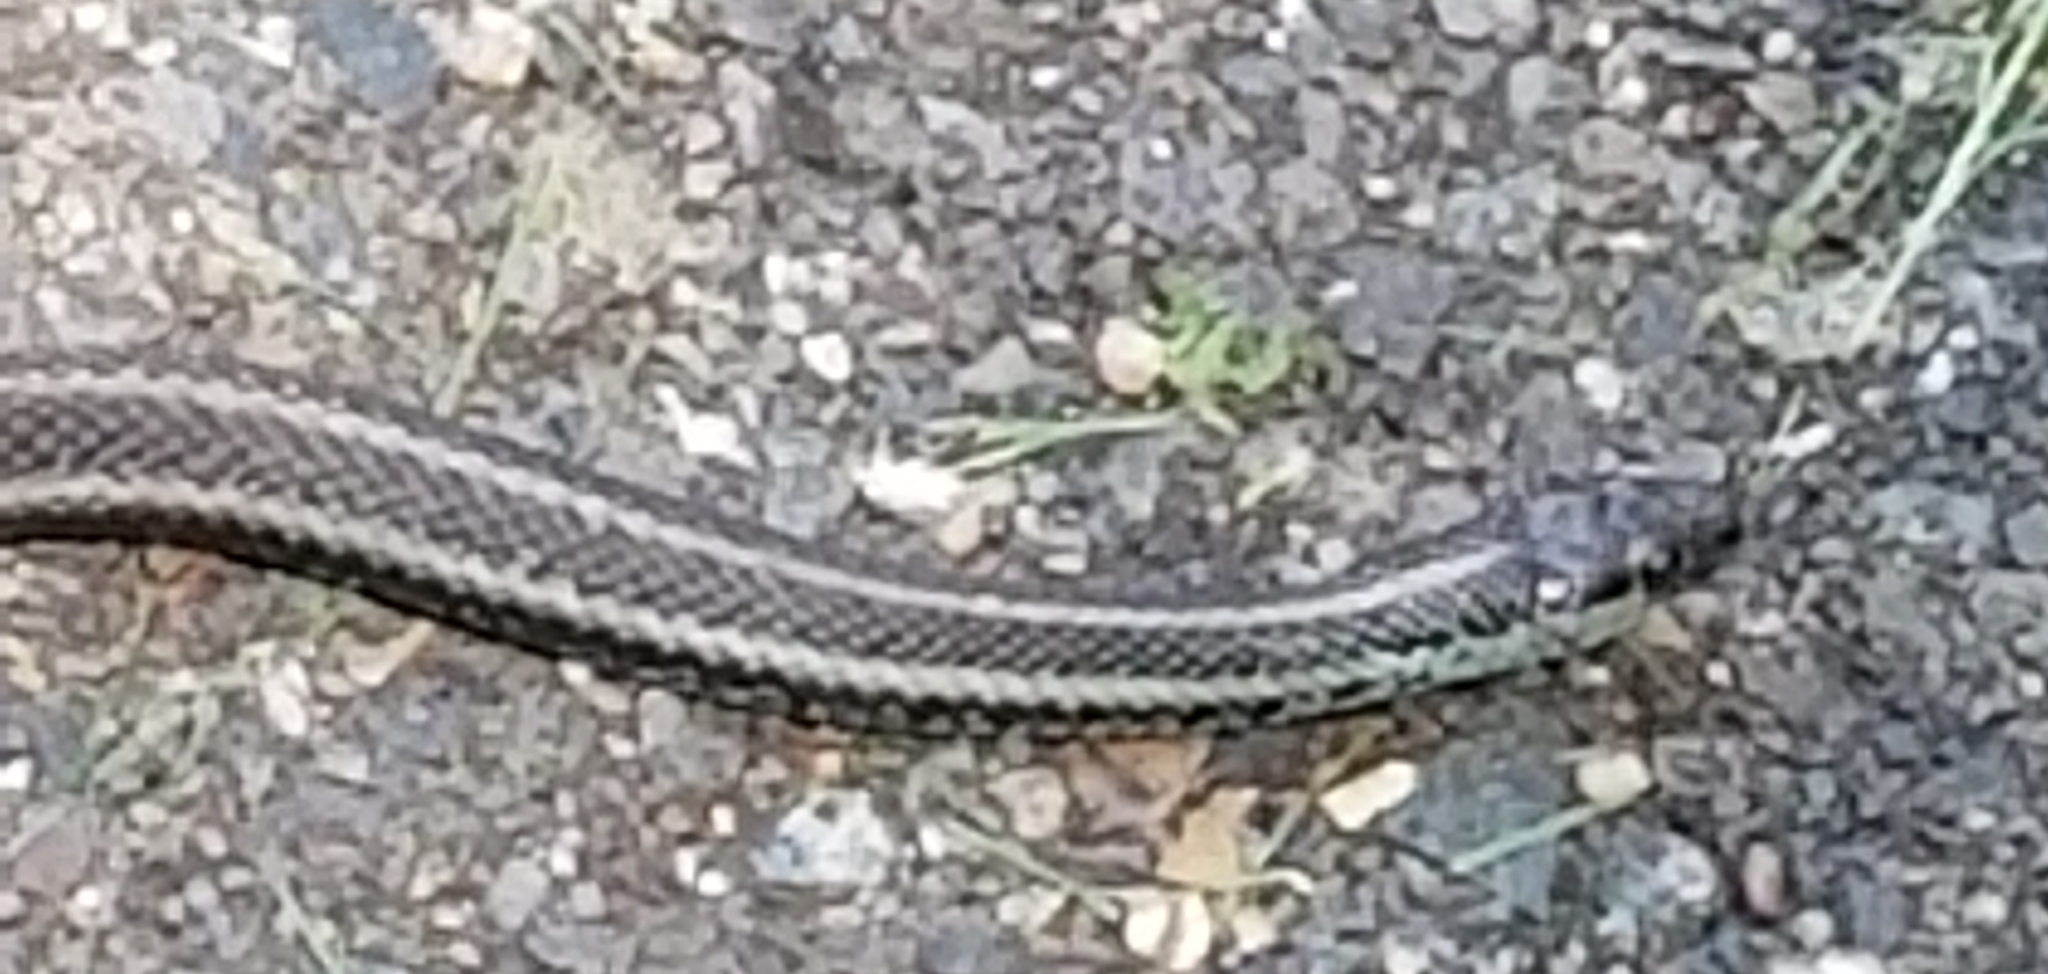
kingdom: Animalia
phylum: Chordata
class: Squamata
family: Colubridae
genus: Thamnophis
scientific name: Thamnophis ordinoides
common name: Northwestern garter snake
